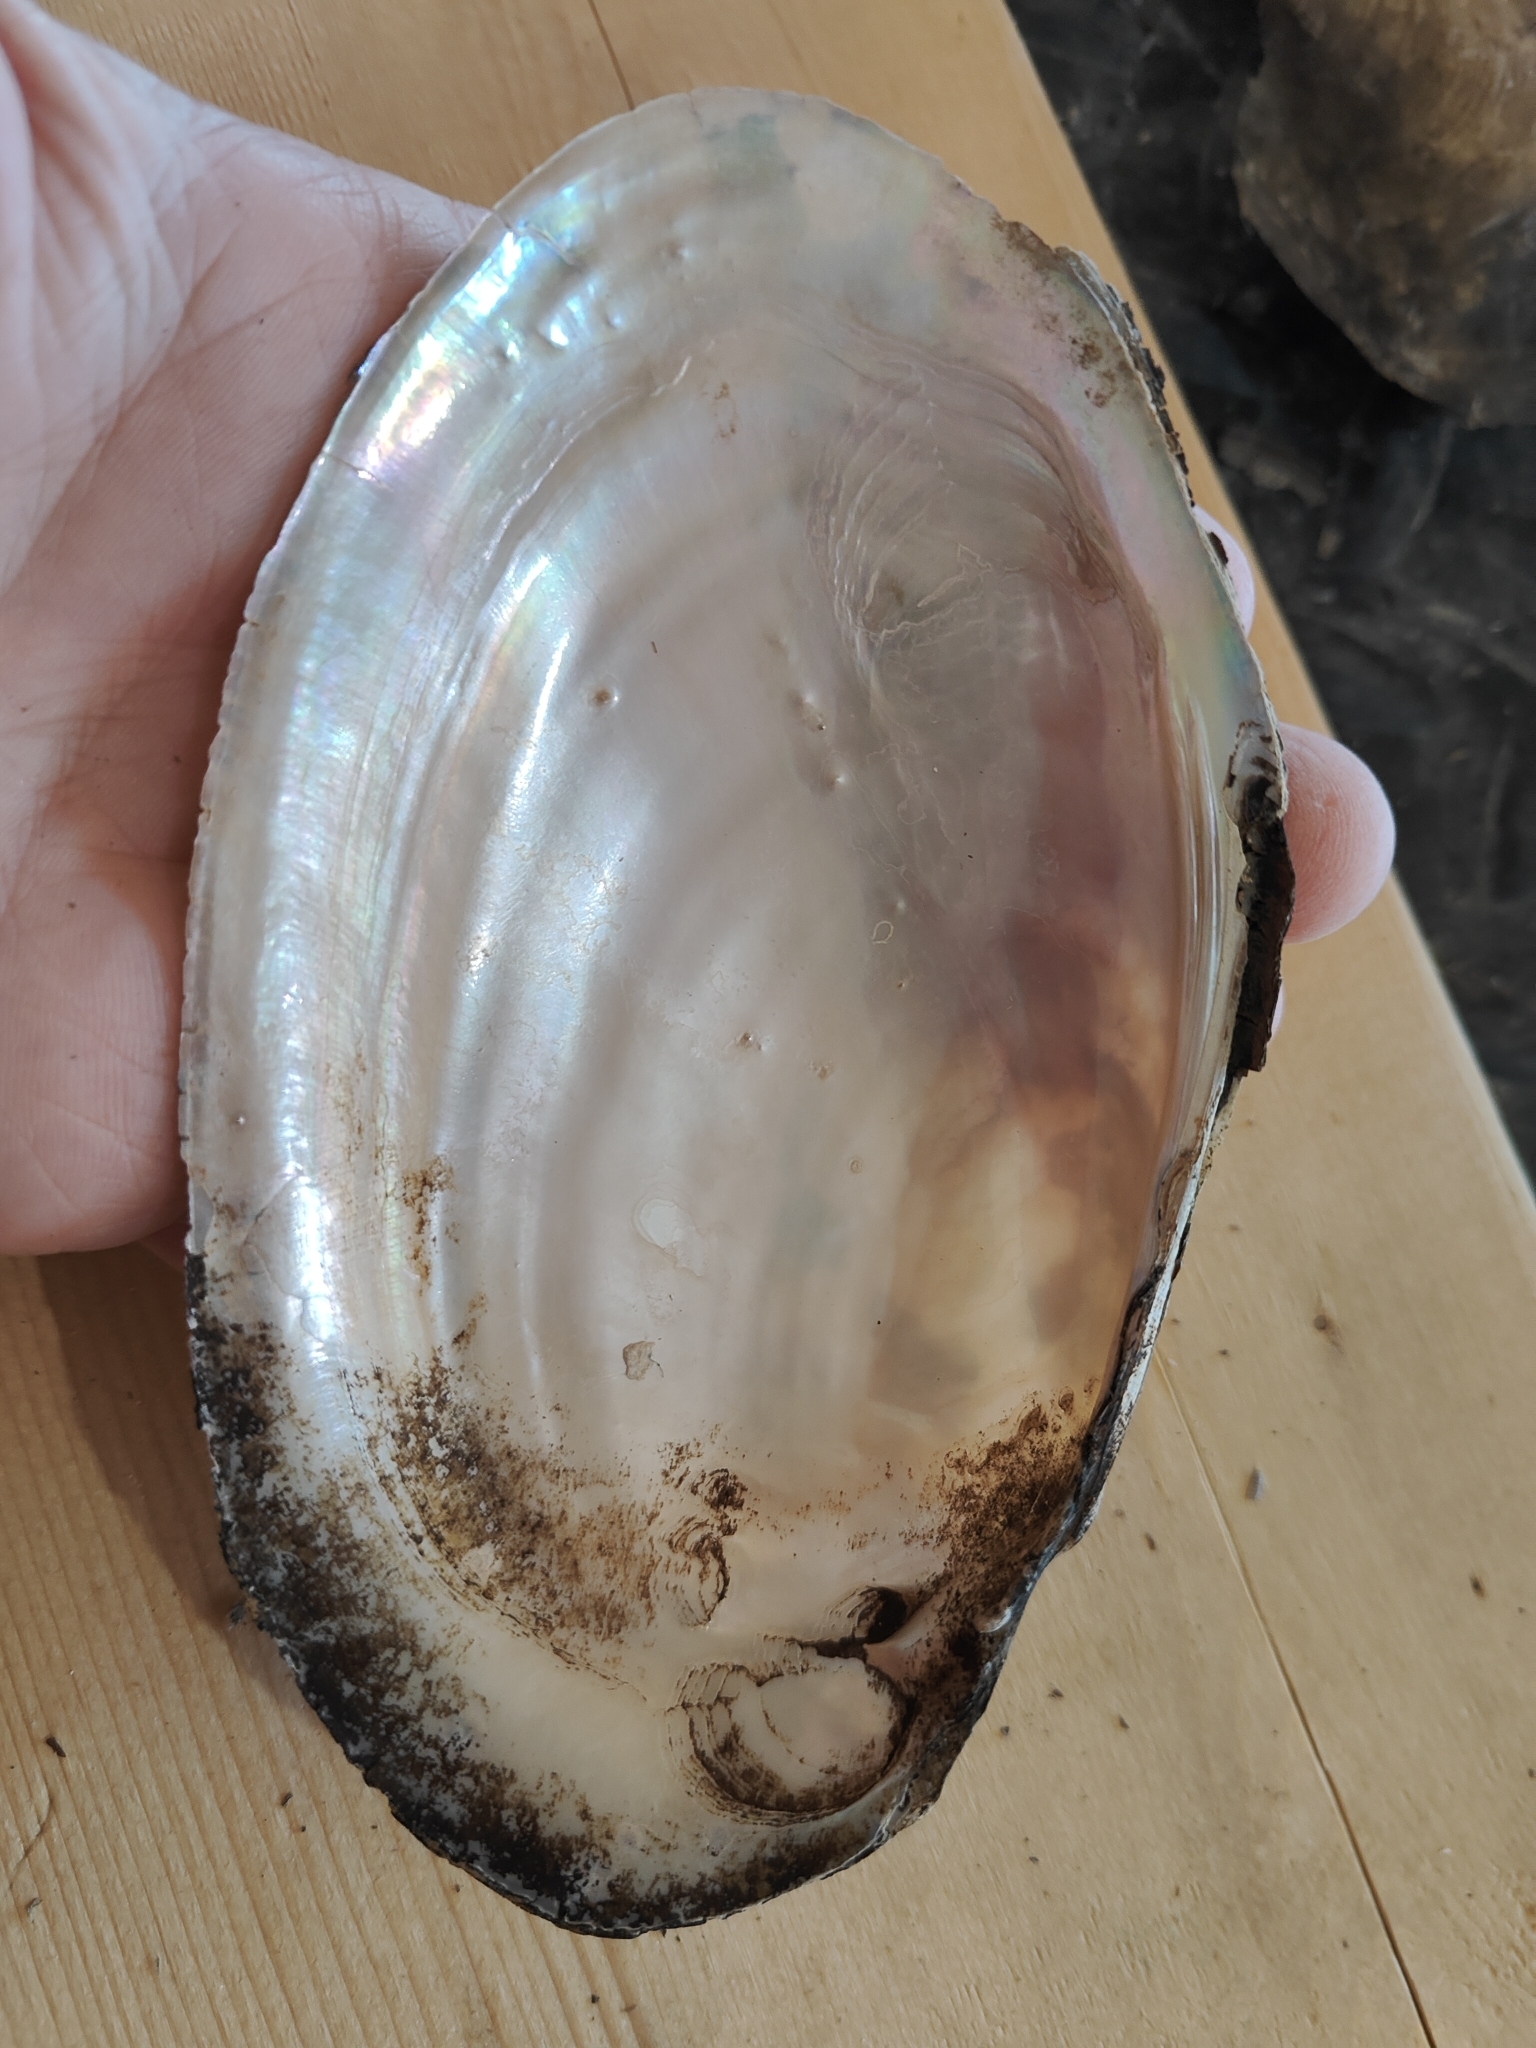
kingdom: Animalia
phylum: Mollusca
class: Bivalvia
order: Unionida
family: Unionidae
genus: Potamilus
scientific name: Potamilus fragilis
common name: Fragile papershell
